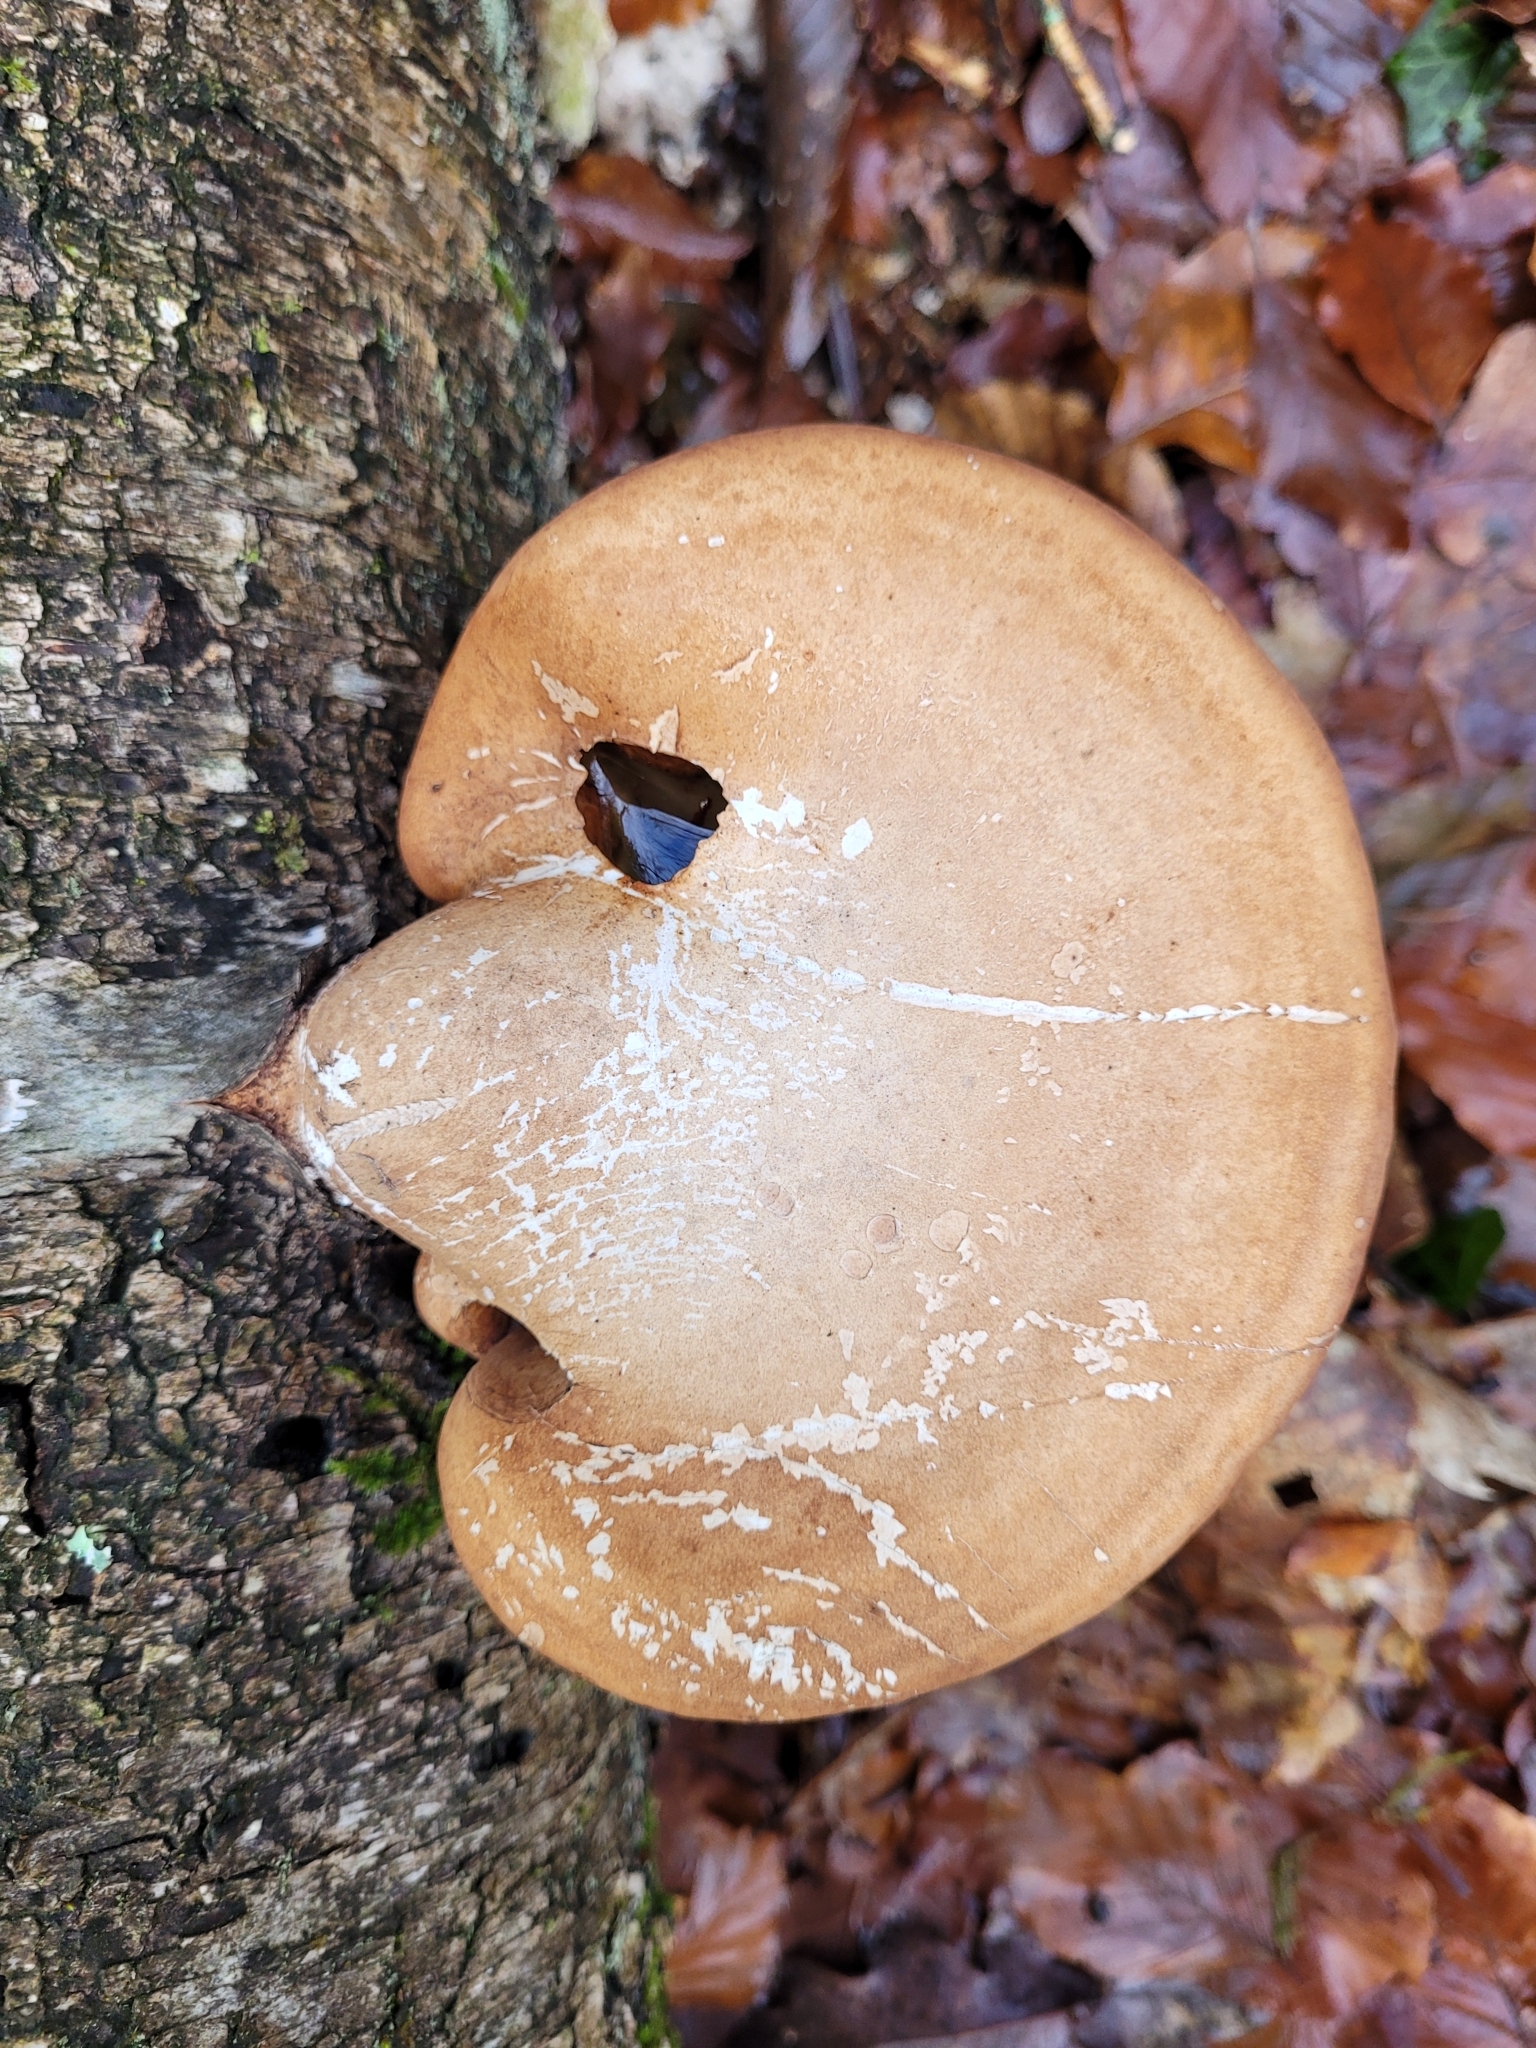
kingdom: Fungi
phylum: Basidiomycota
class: Agaricomycetes
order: Polyporales
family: Fomitopsidaceae
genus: Fomitopsis
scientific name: Fomitopsis betulina
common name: Birch polypore
